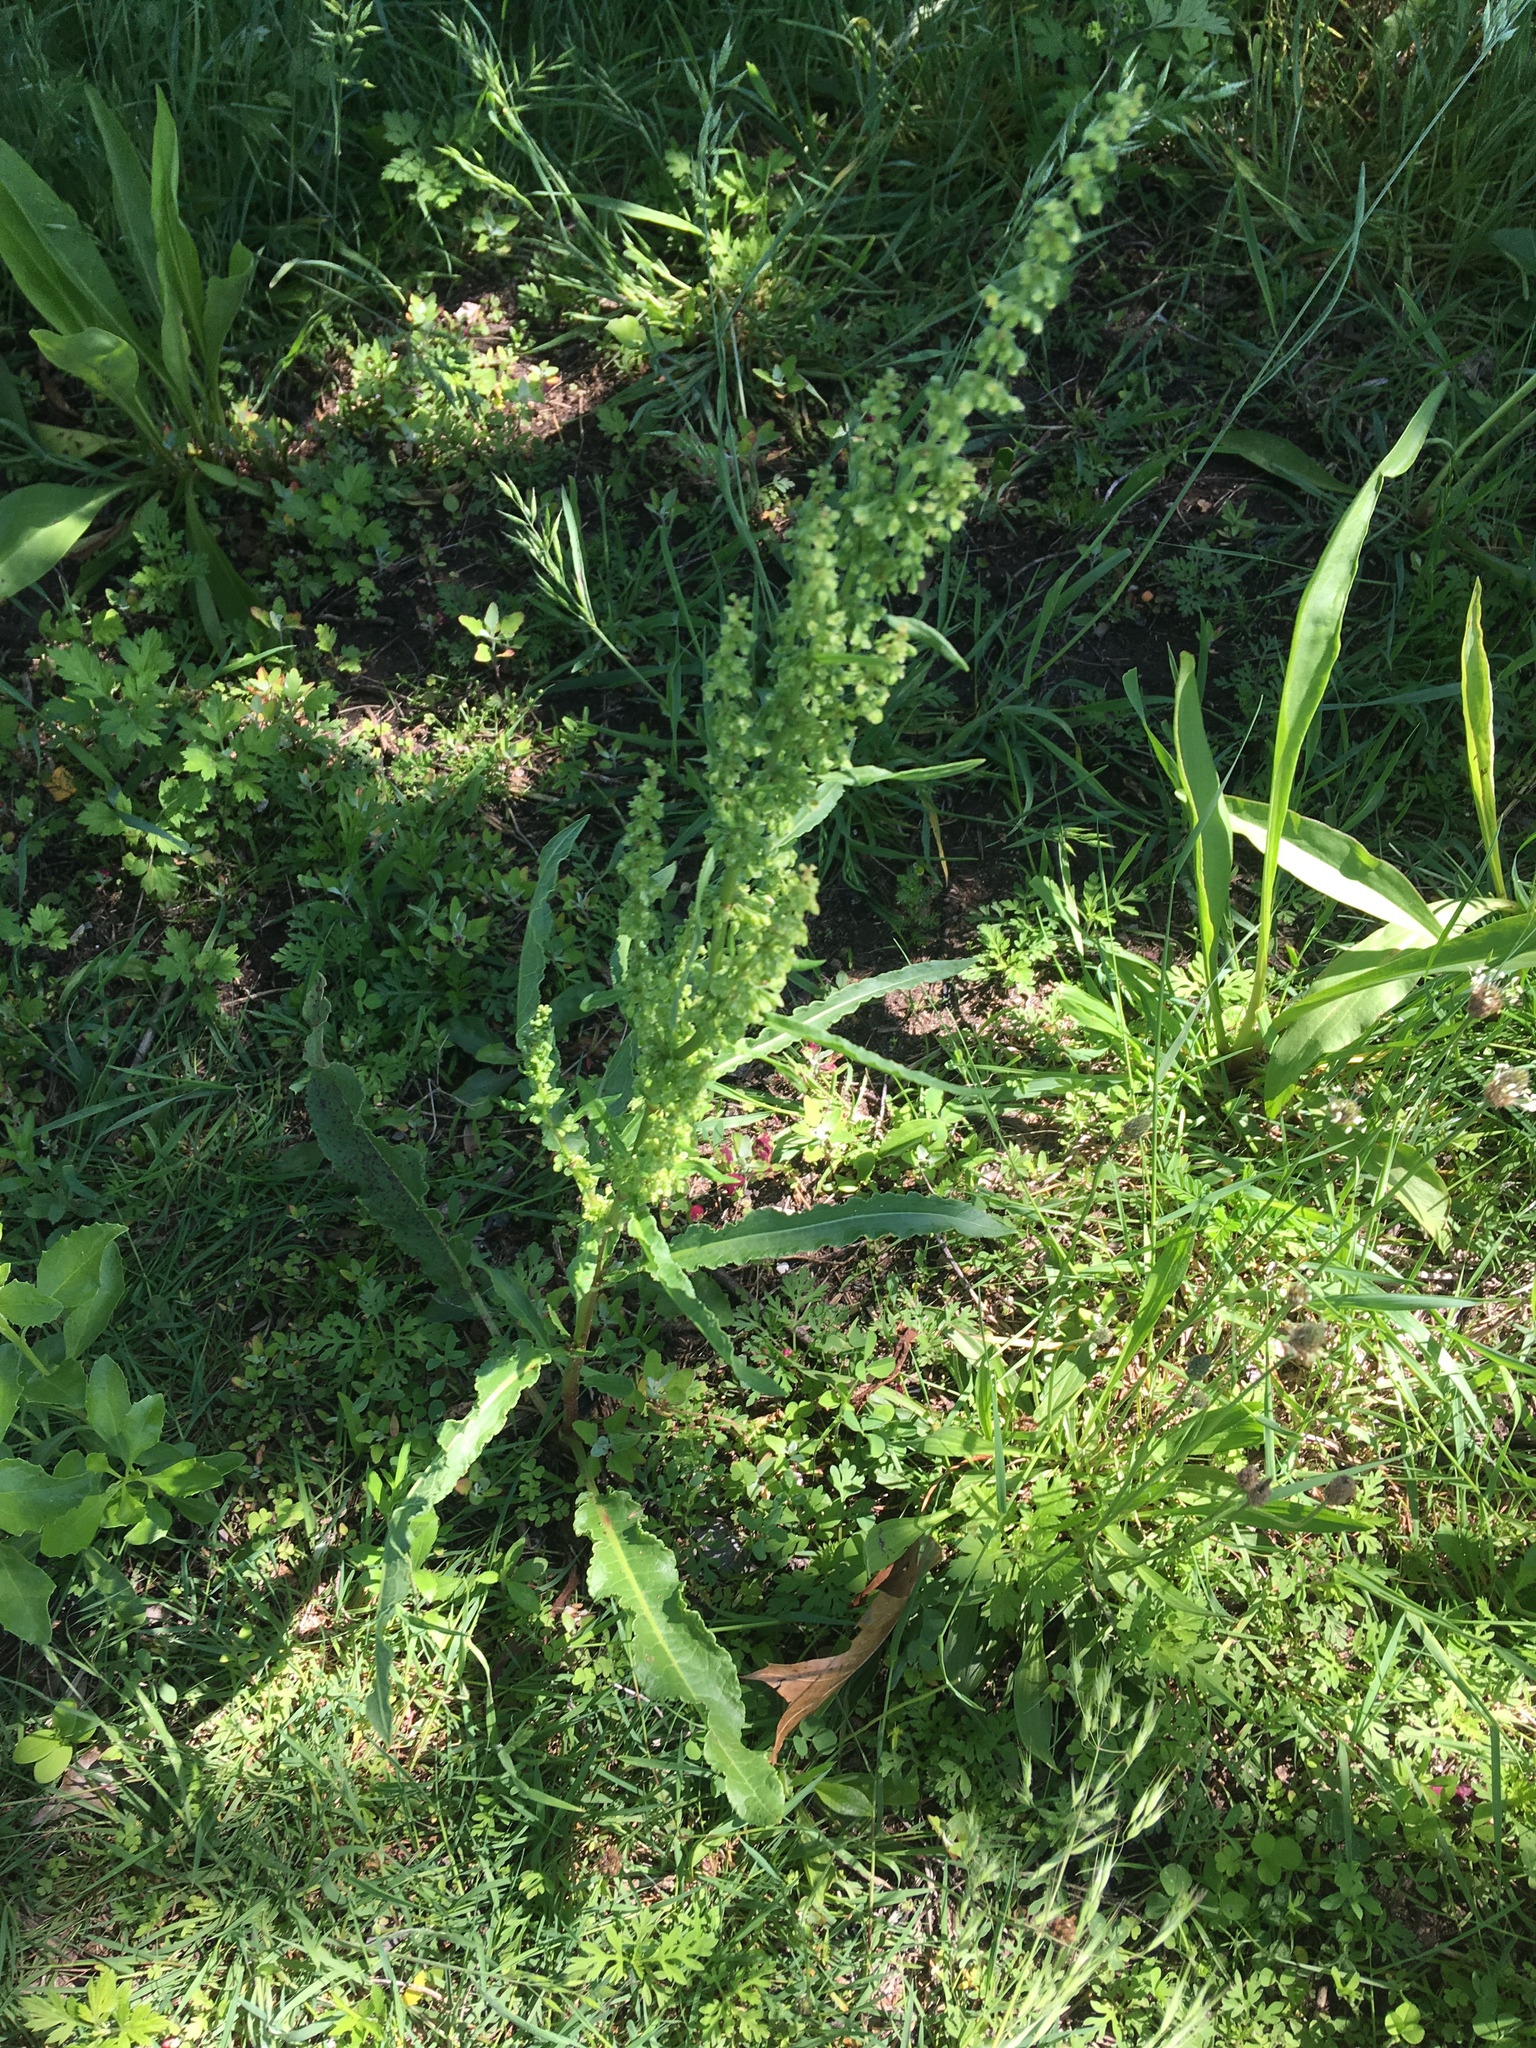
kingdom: Plantae
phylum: Tracheophyta
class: Magnoliopsida
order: Caryophyllales
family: Polygonaceae
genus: Rumex
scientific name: Rumex crispus
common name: Curled dock
